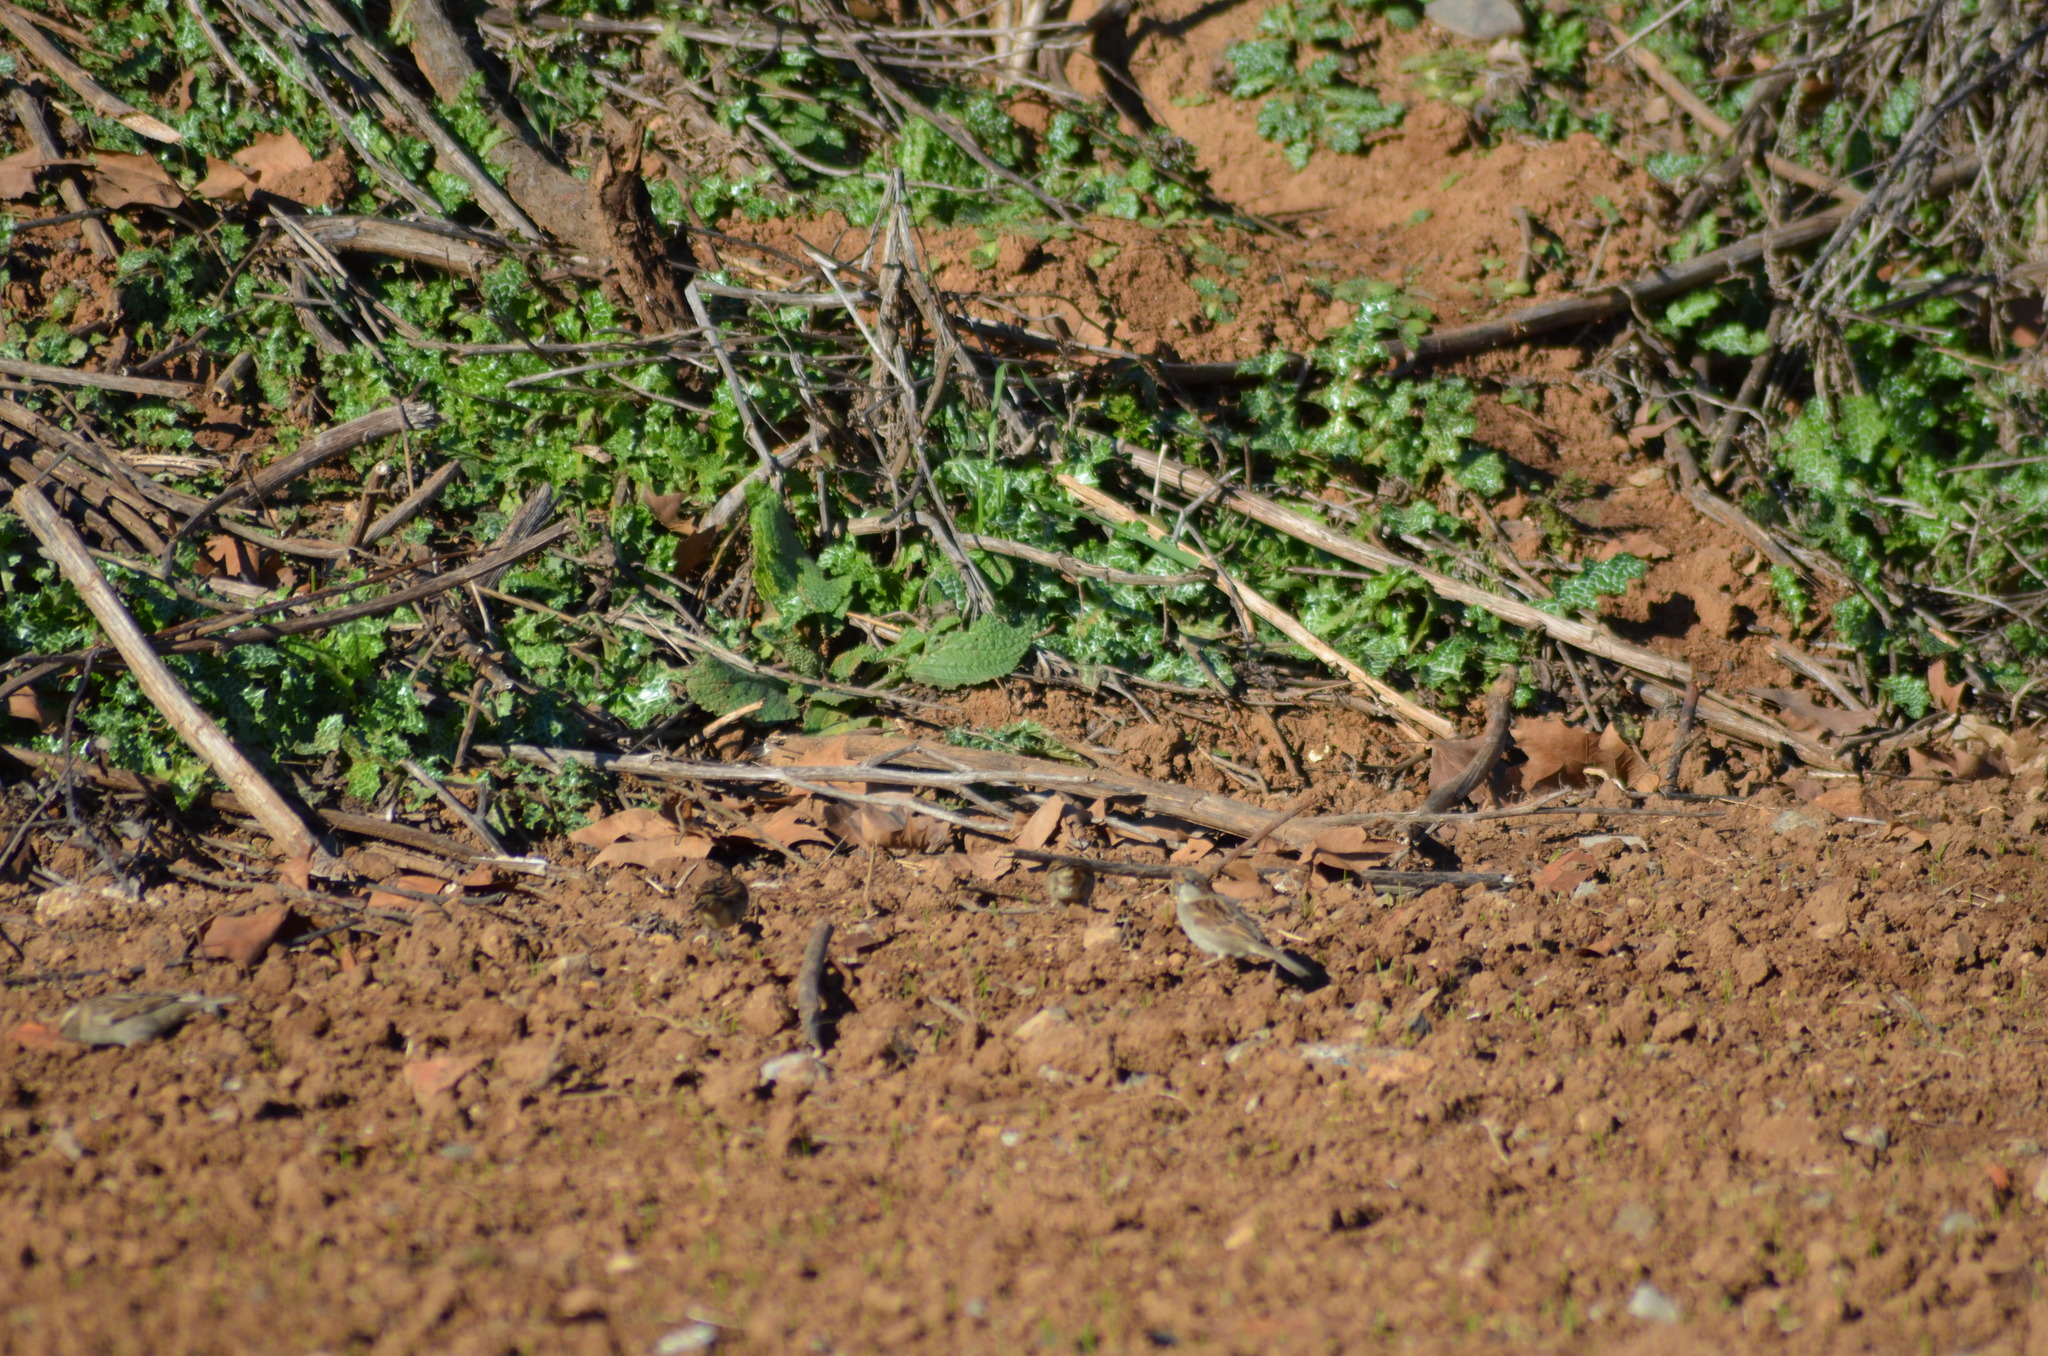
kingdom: Animalia
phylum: Chordata
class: Aves
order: Passeriformes
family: Passeridae
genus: Passer
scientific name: Passer domesticus
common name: House sparrow
